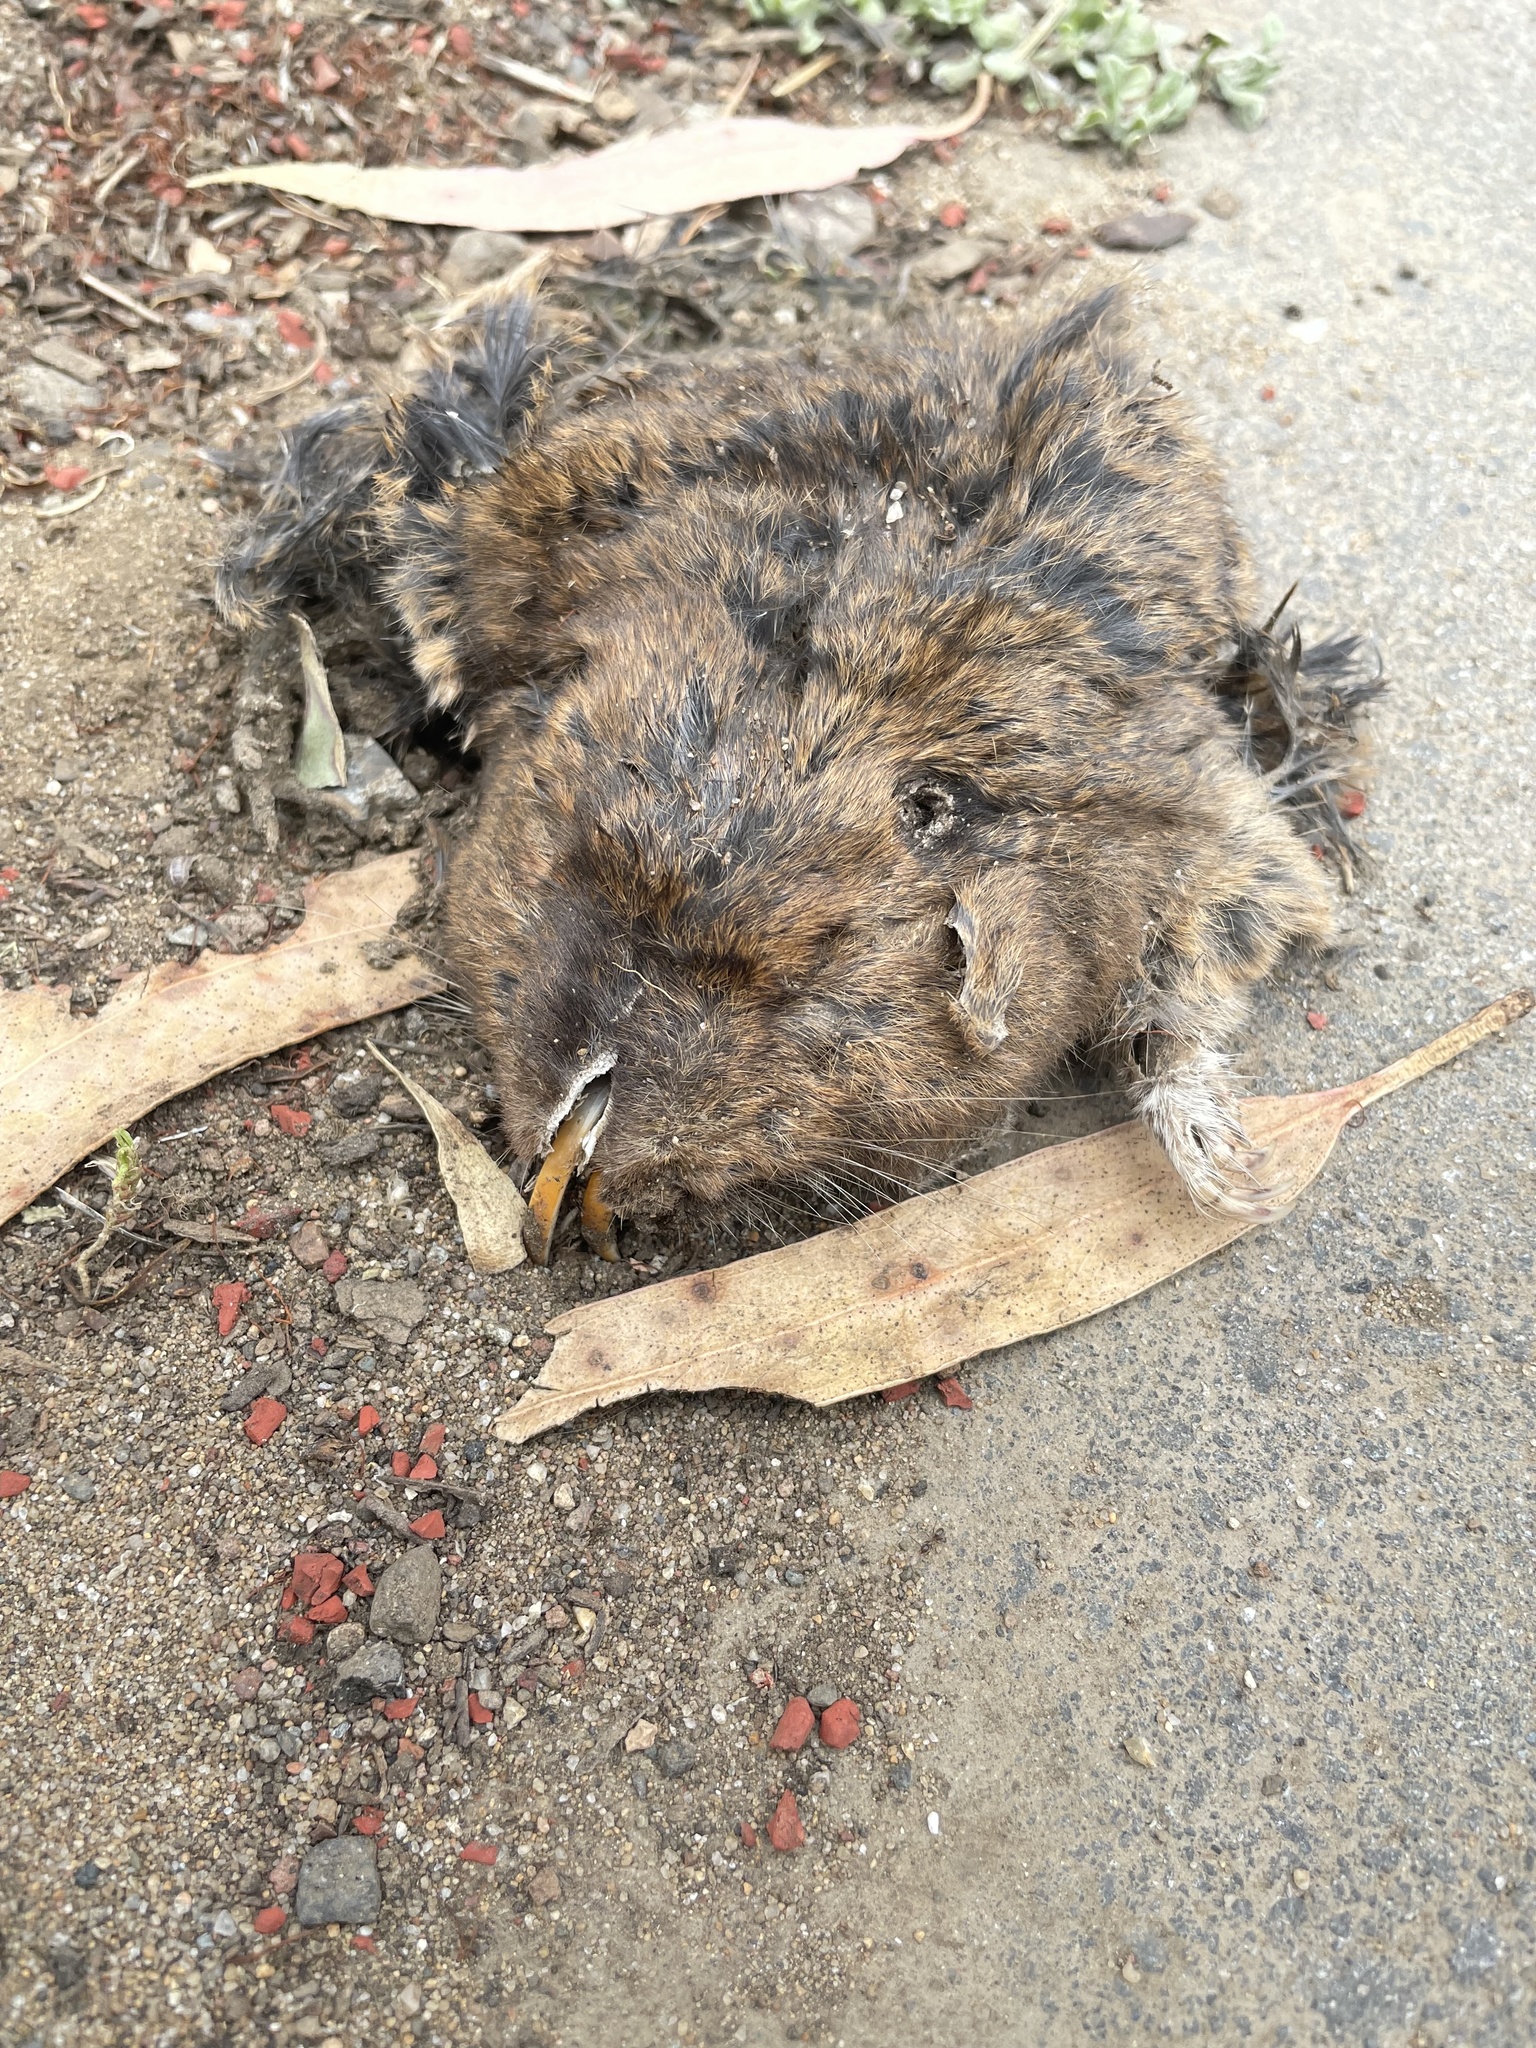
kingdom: Animalia
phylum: Chordata
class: Mammalia
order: Rodentia
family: Geomyidae
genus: Thomomys
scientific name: Thomomys bottae
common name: Botta's pocket gopher
